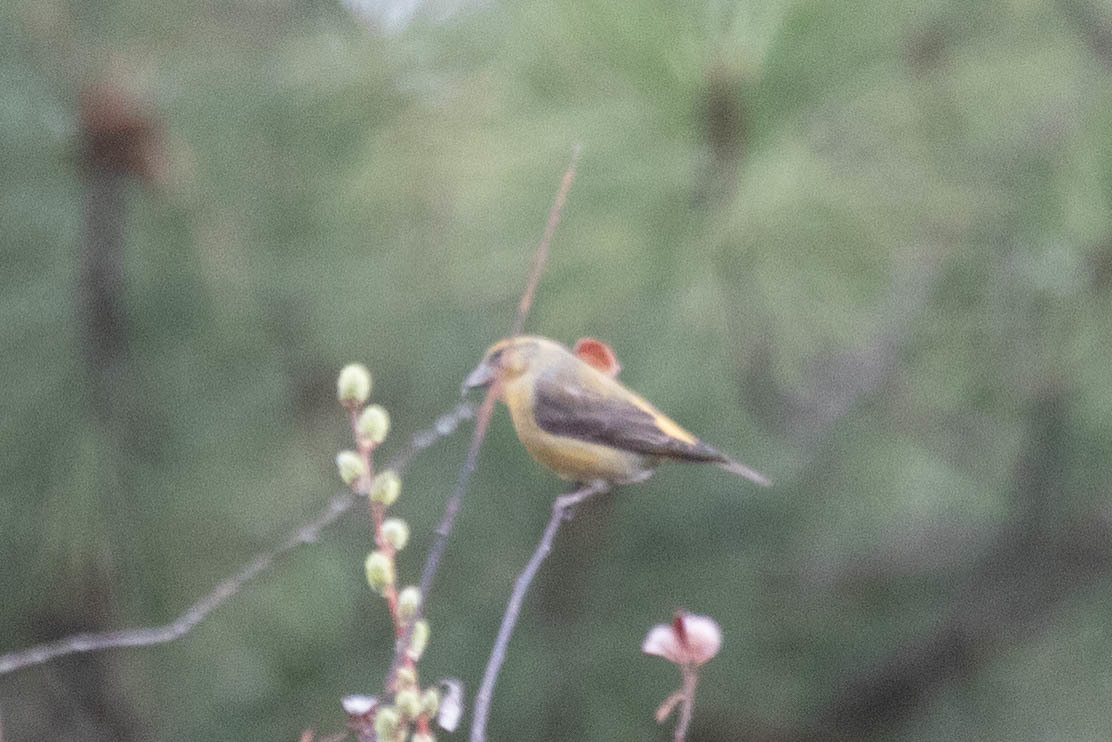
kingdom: Animalia
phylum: Chordata
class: Aves
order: Passeriformes
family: Fringillidae
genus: Loxia
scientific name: Loxia curvirostra
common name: Red crossbill
